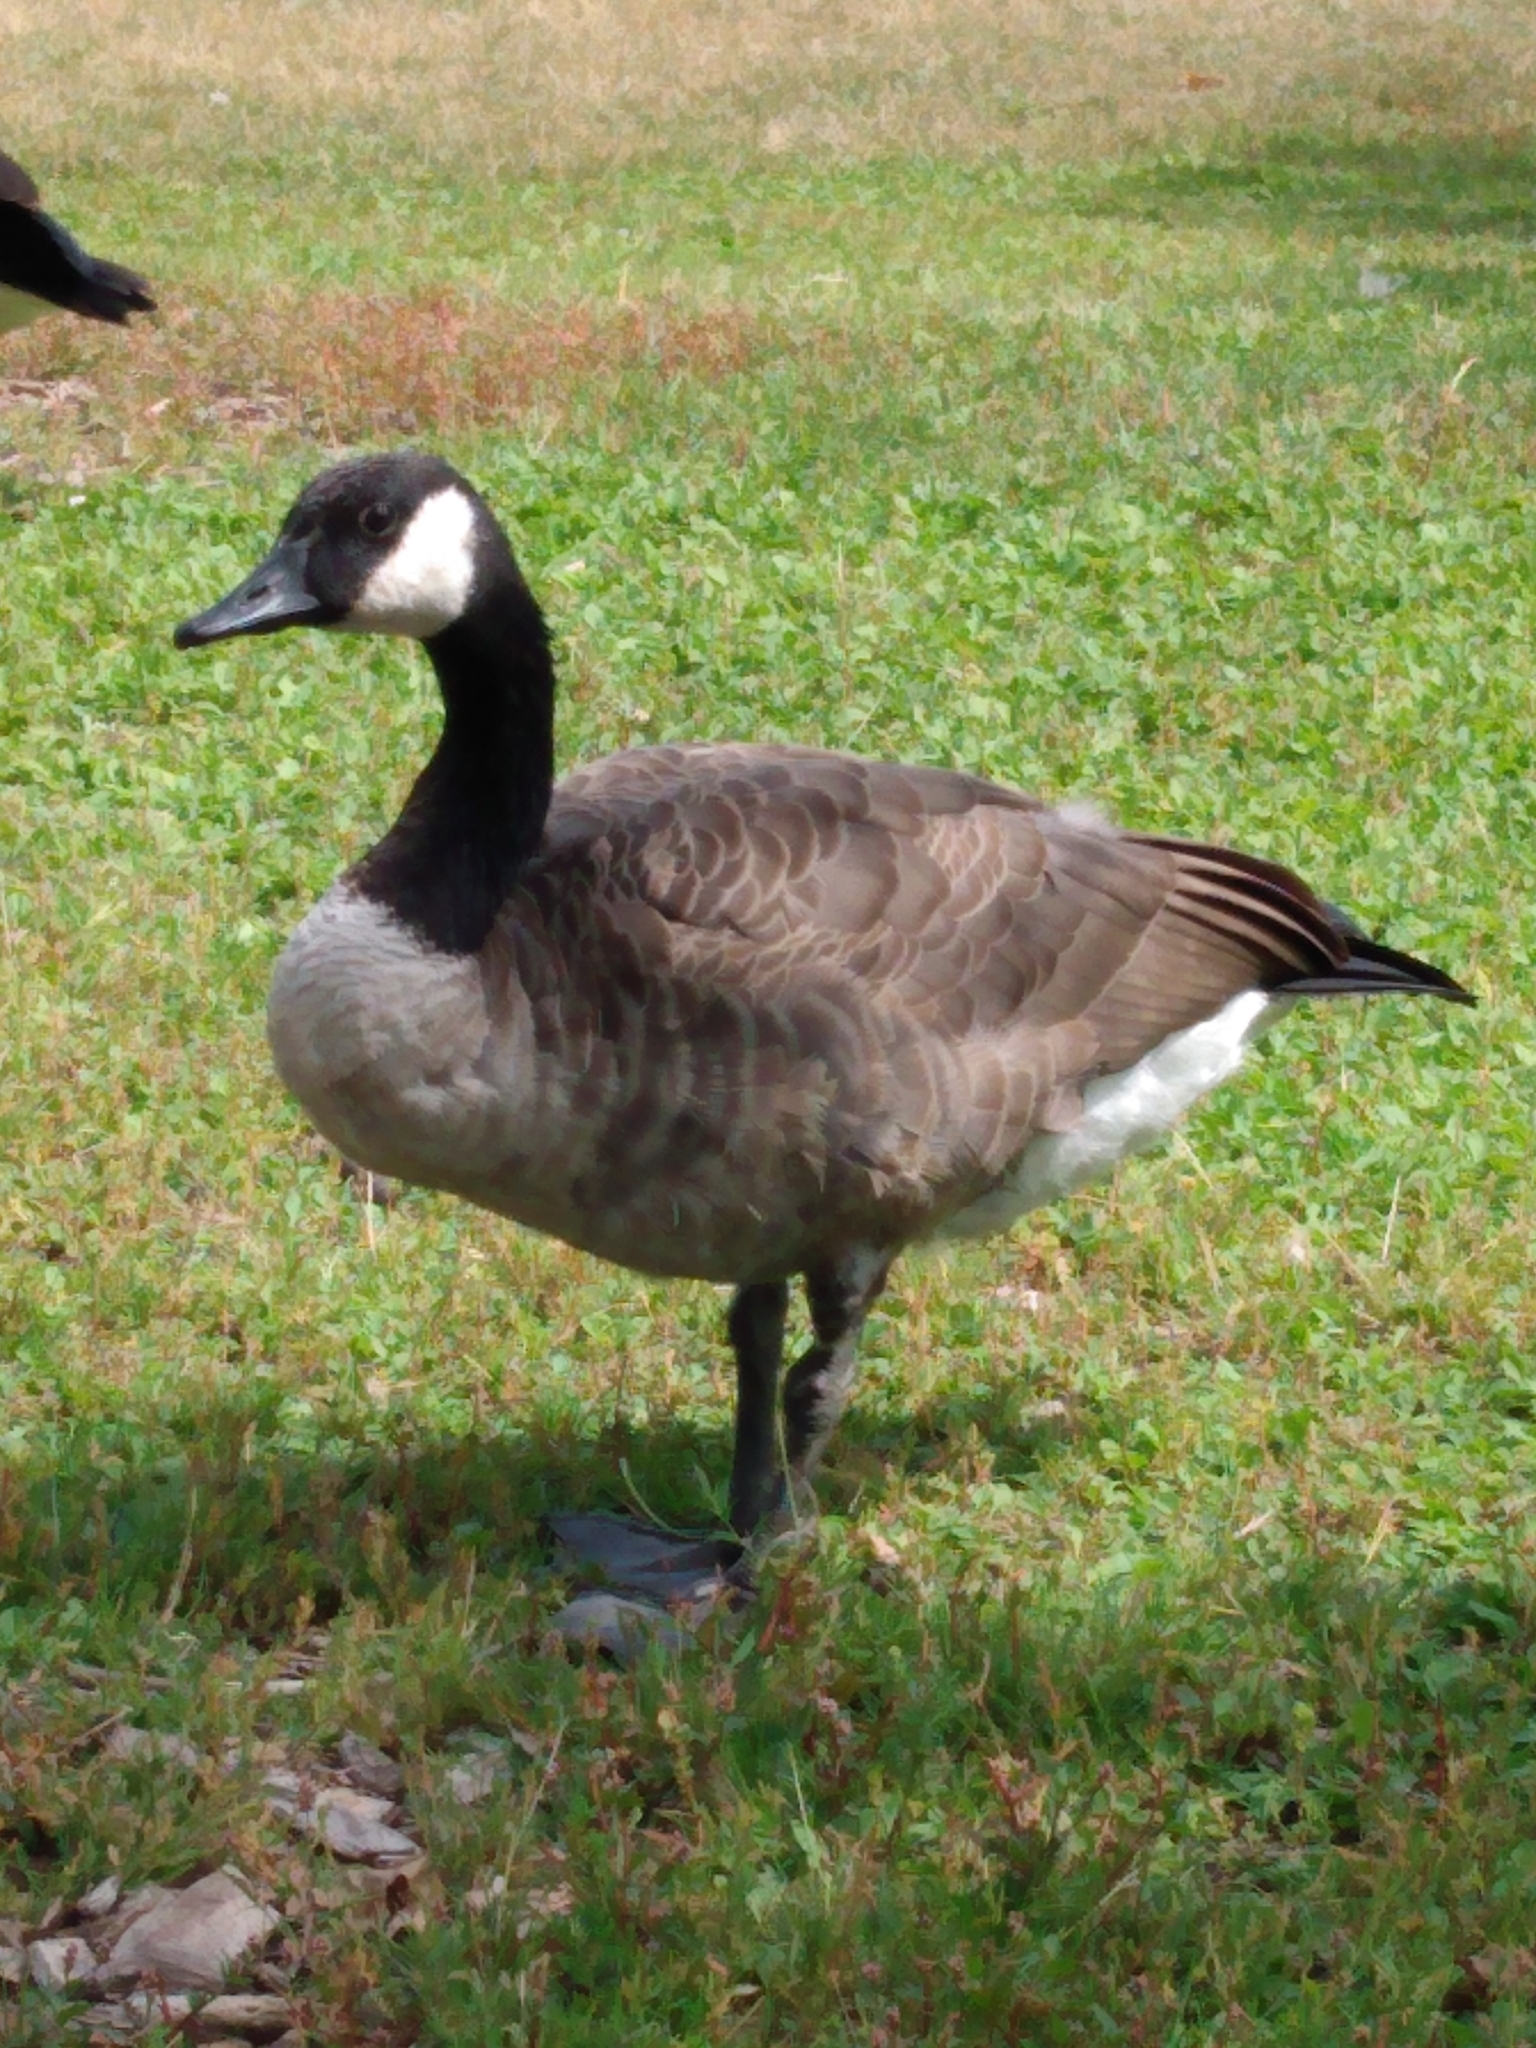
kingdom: Animalia
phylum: Chordata
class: Aves
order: Anseriformes
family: Anatidae
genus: Branta
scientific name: Branta canadensis
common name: Canada goose
